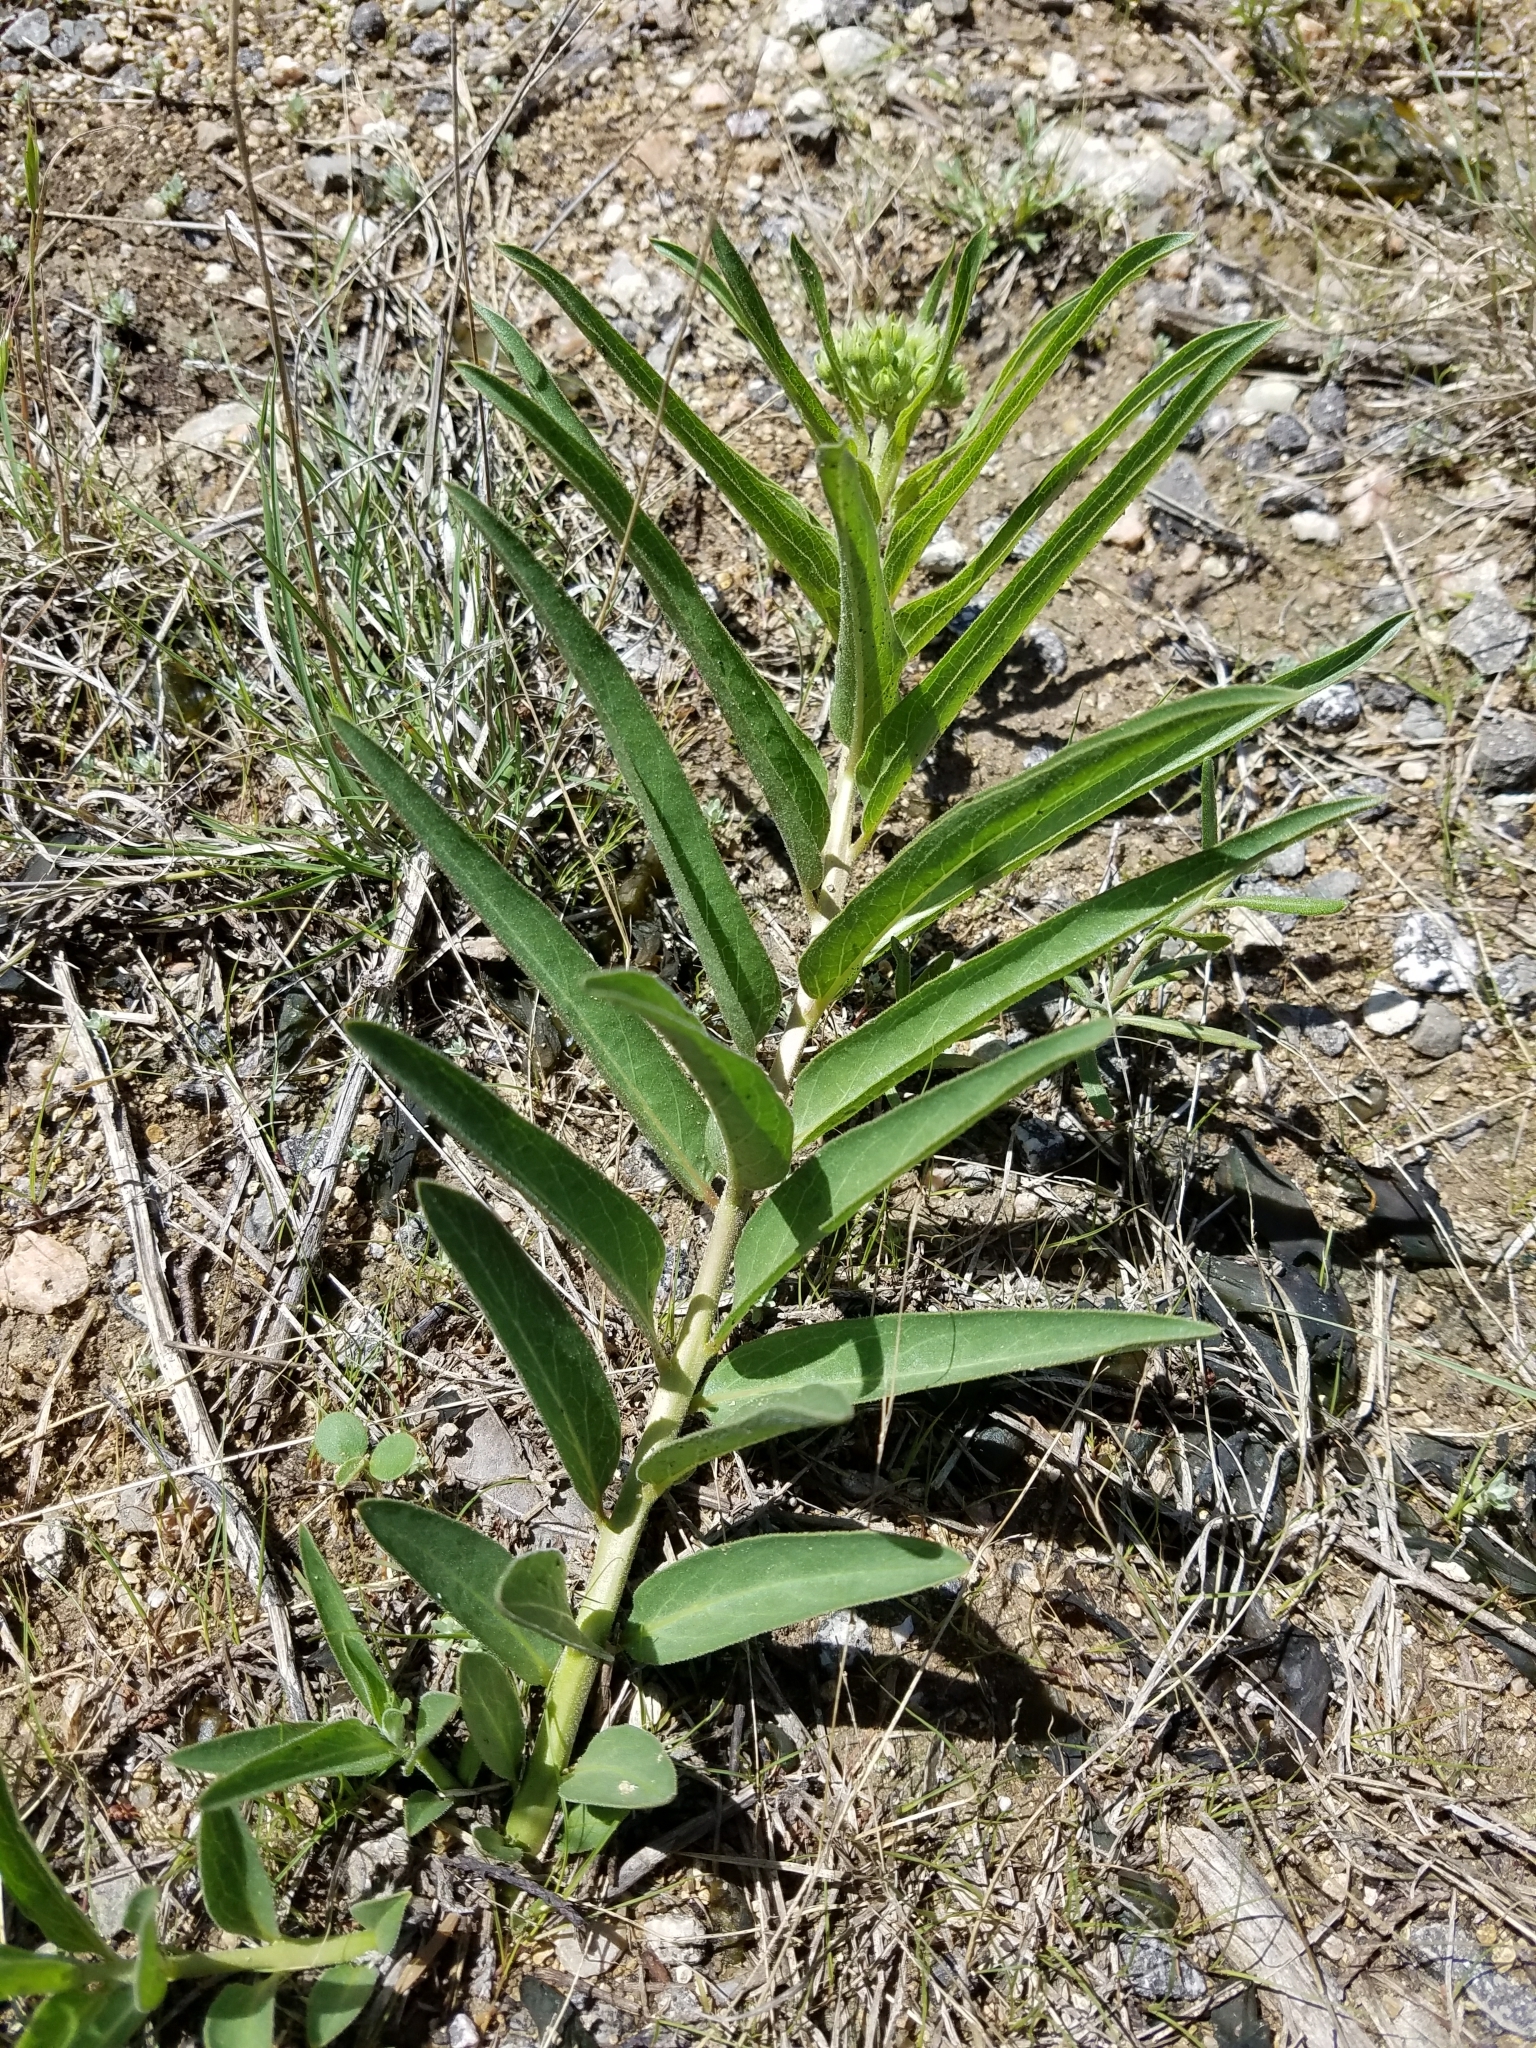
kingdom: Plantae
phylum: Tracheophyta
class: Magnoliopsida
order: Gentianales
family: Apocynaceae
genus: Asclepias
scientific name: Asclepias asperula
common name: Antelope horns
